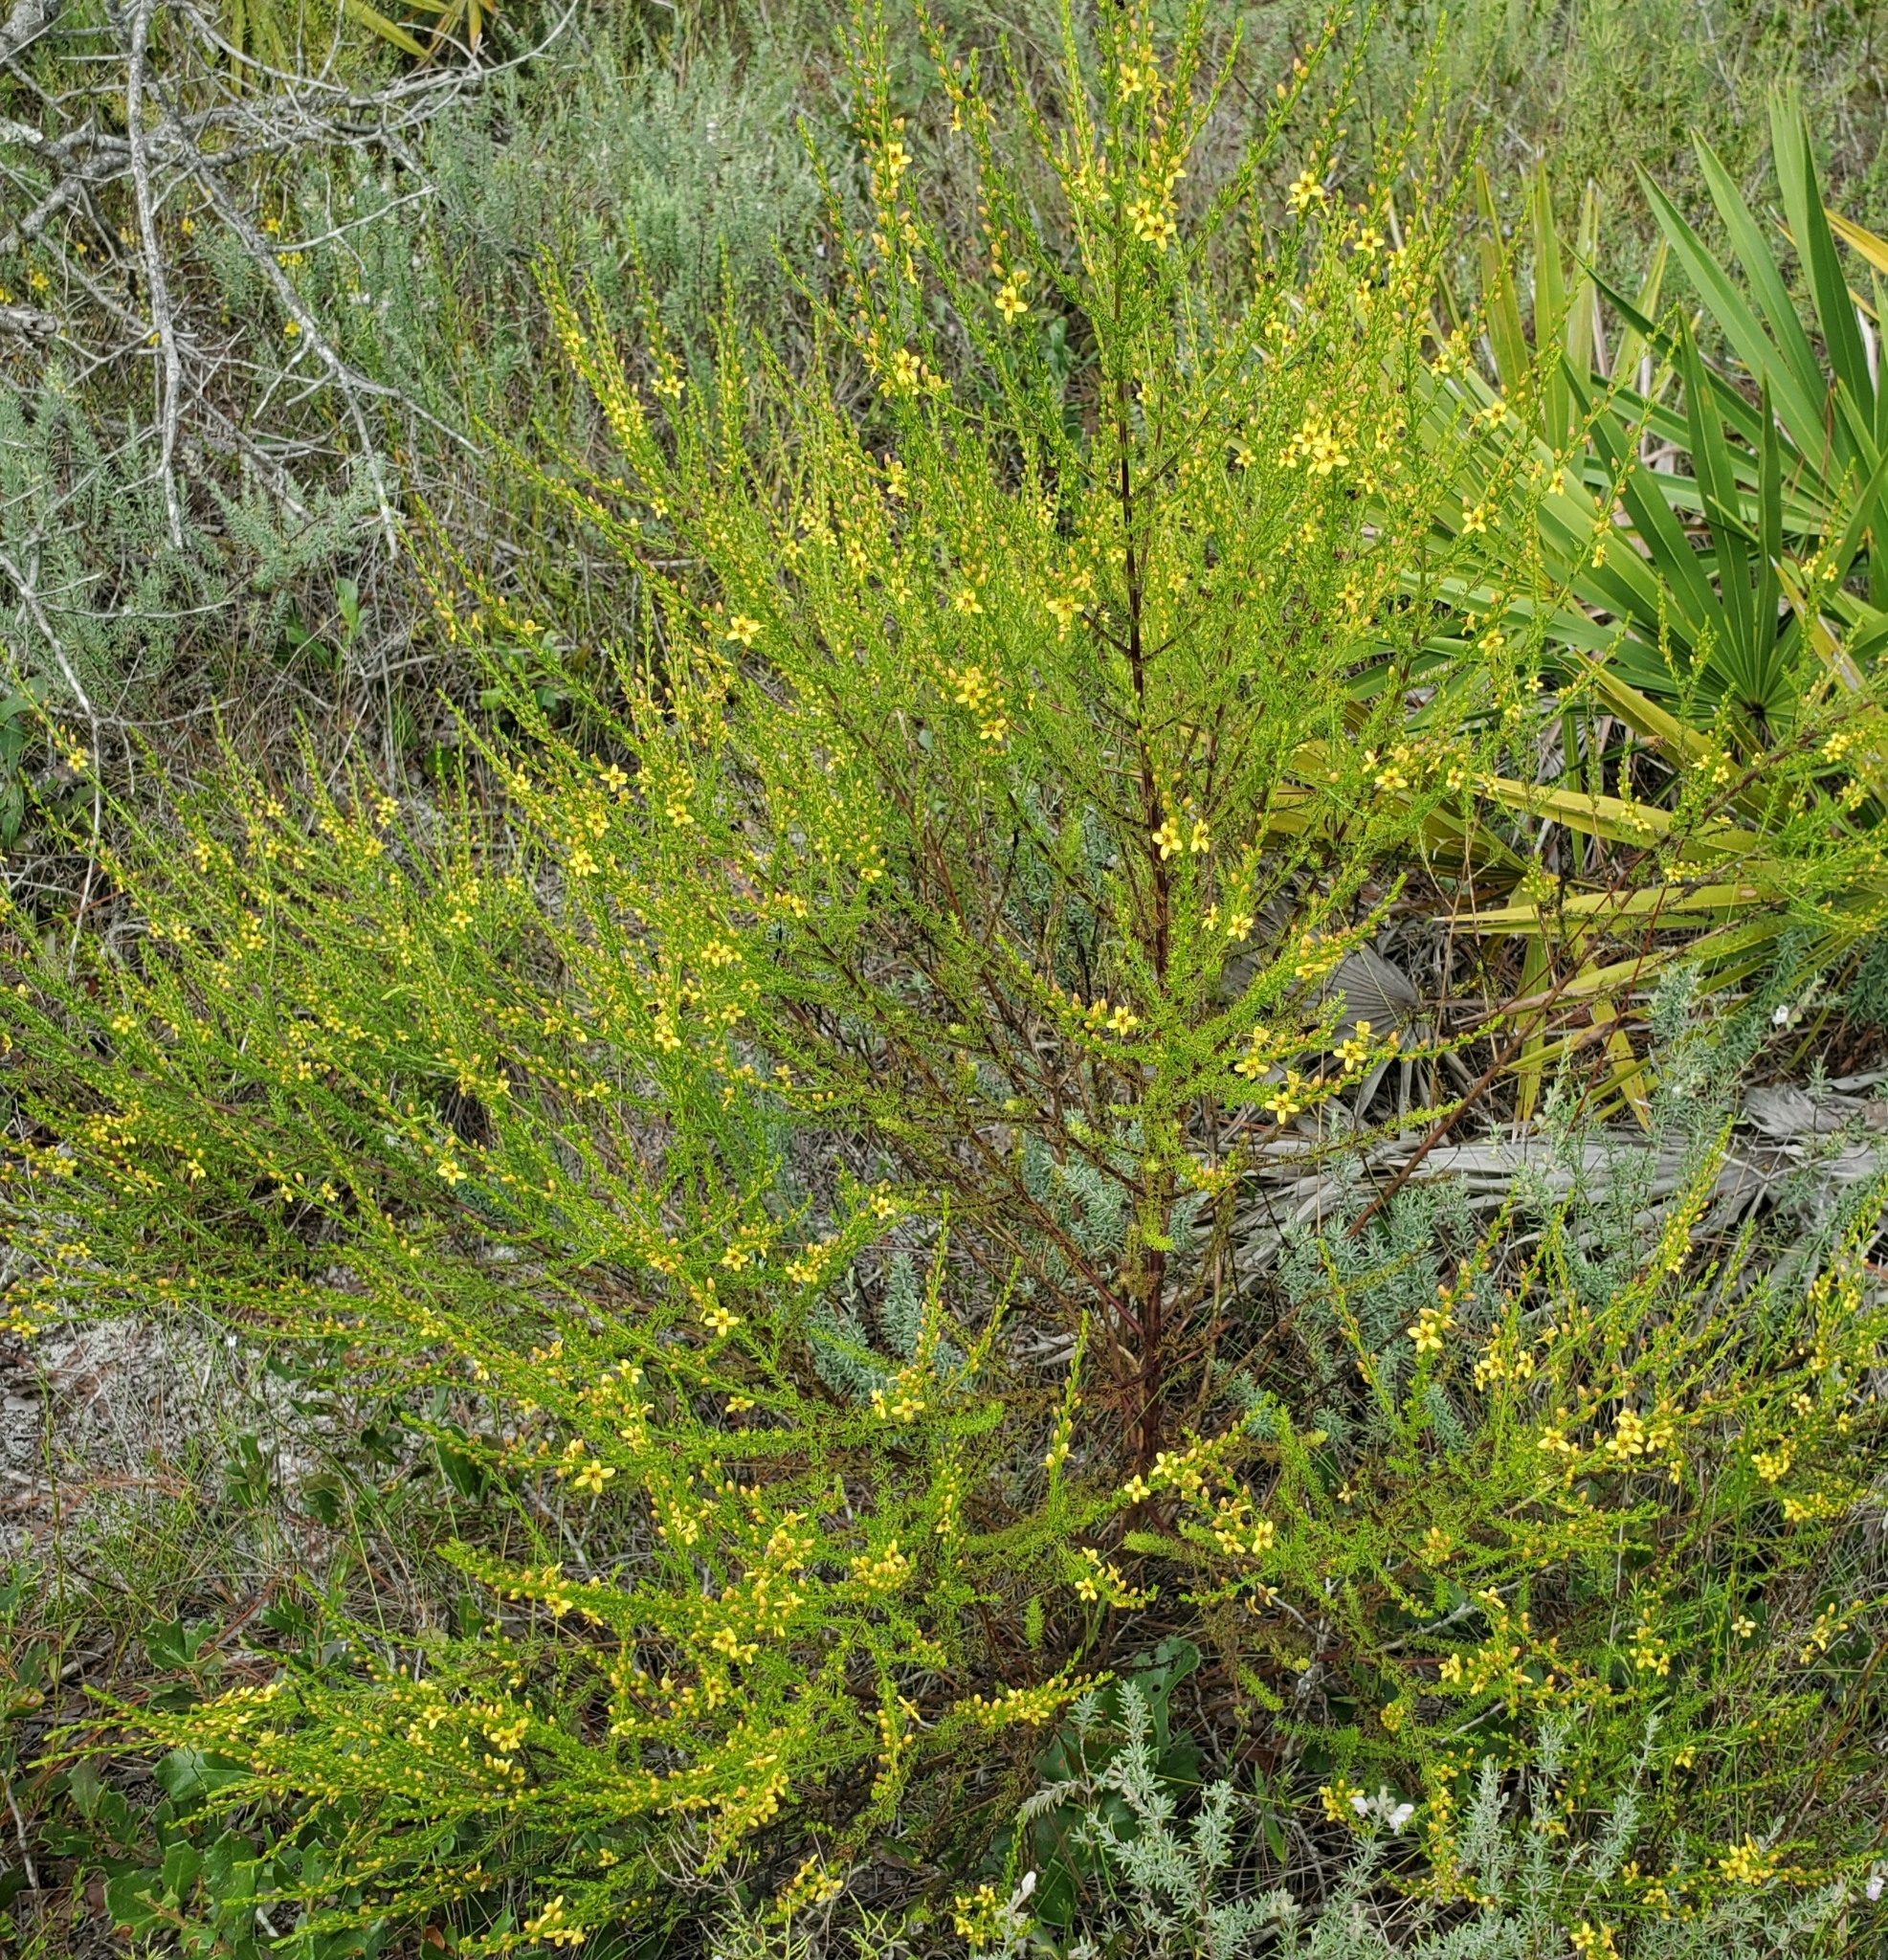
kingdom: Plantae
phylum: Tracheophyta
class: Magnoliopsida
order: Lamiales
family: Orobanchaceae
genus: Seymeria
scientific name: Seymeria cassioides
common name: Yaupon black-senna
